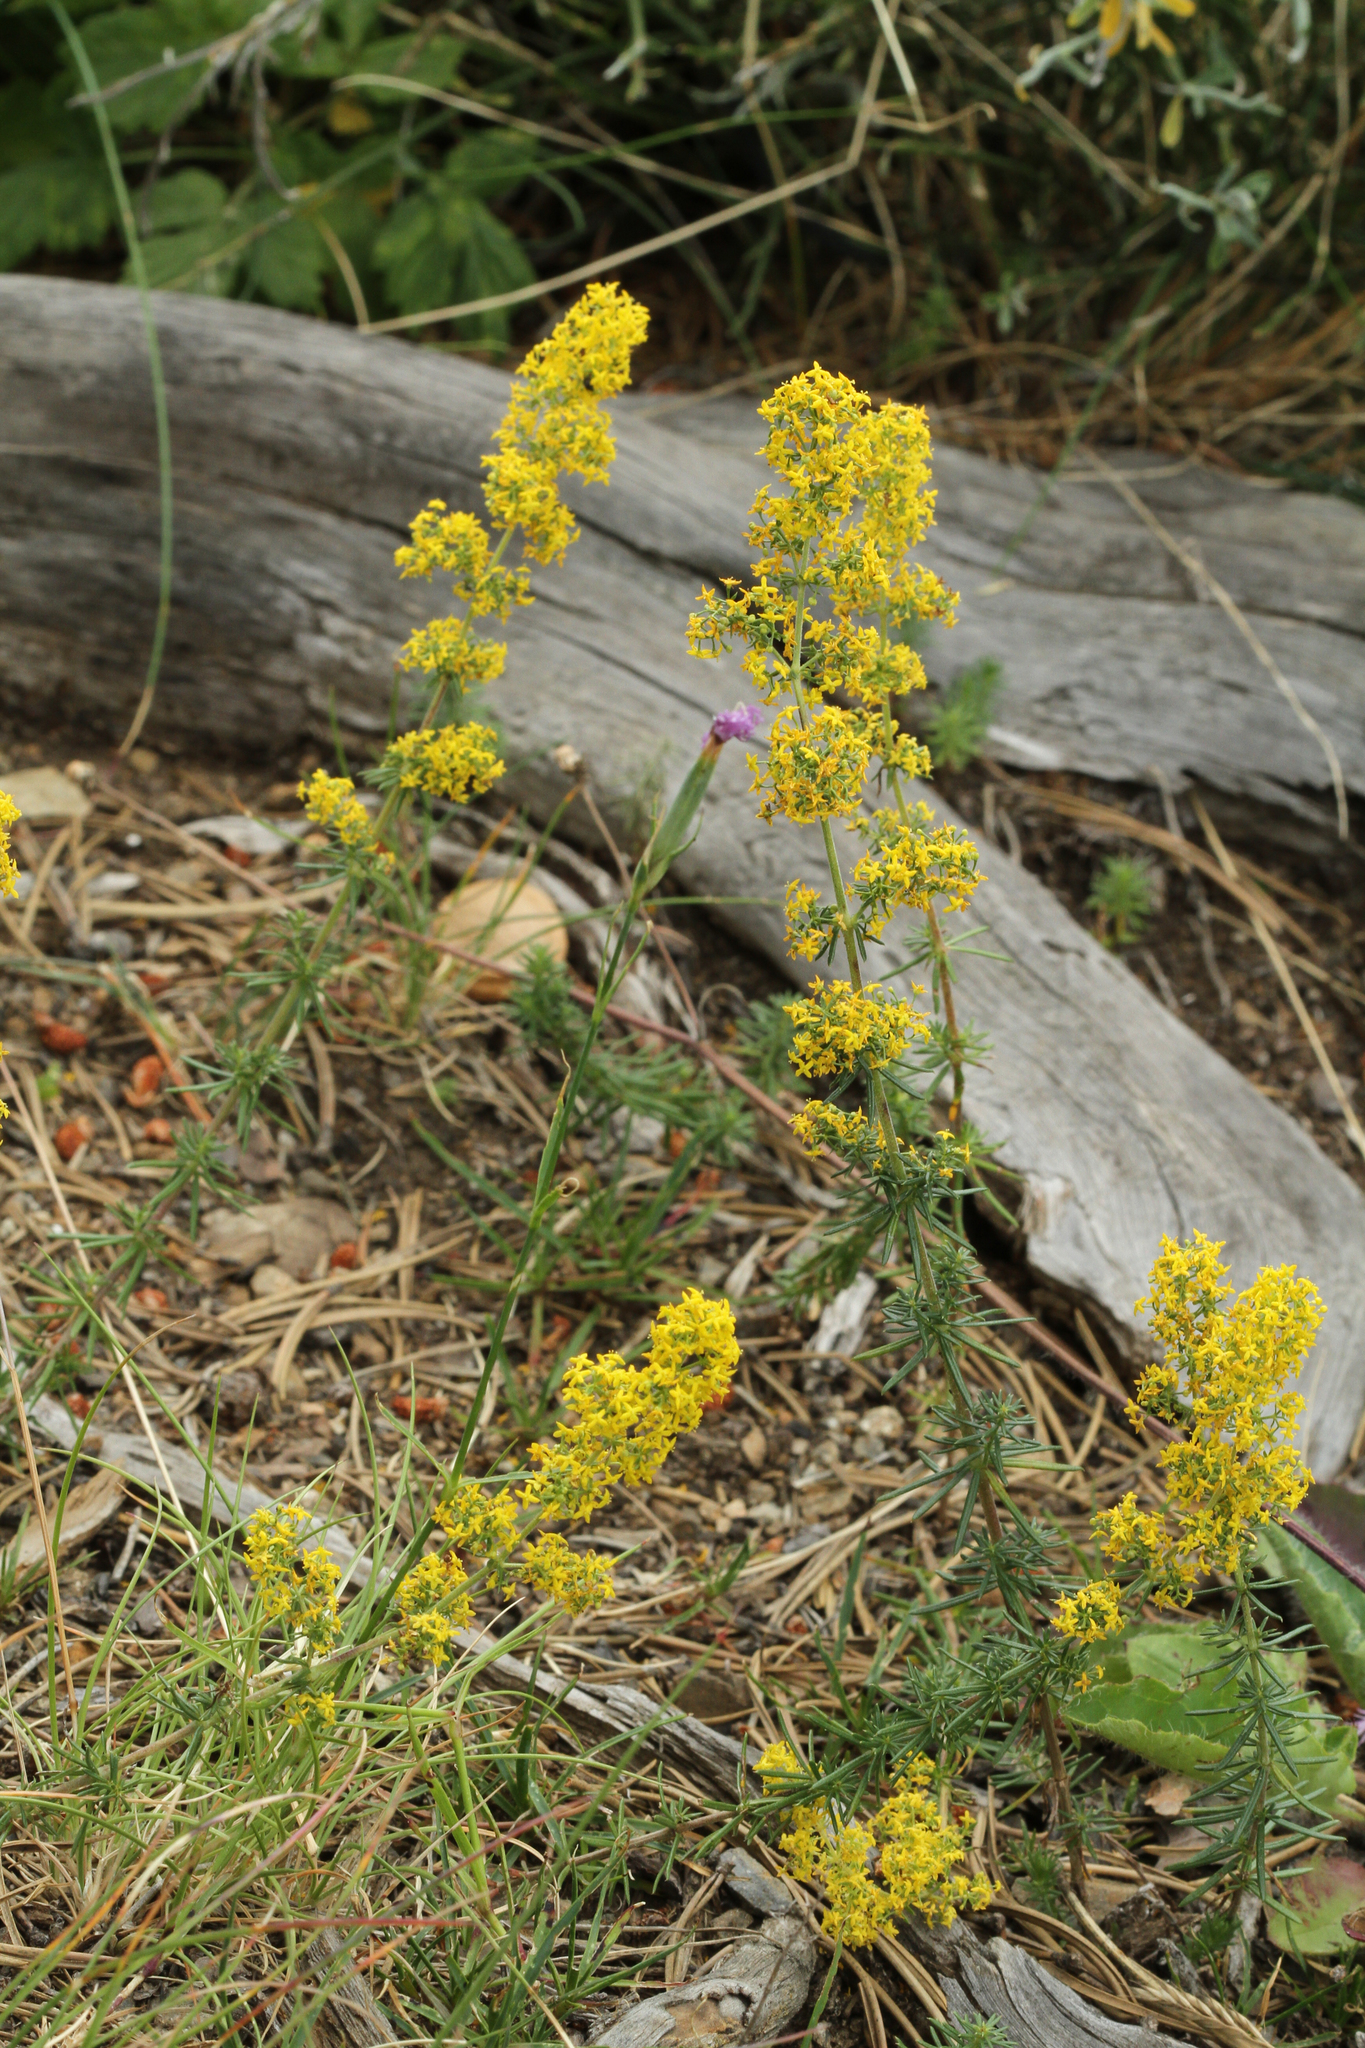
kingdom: Plantae
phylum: Tracheophyta
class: Magnoliopsida
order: Gentianales
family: Rubiaceae
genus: Galium
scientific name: Galium verum
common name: Lady's bedstraw
